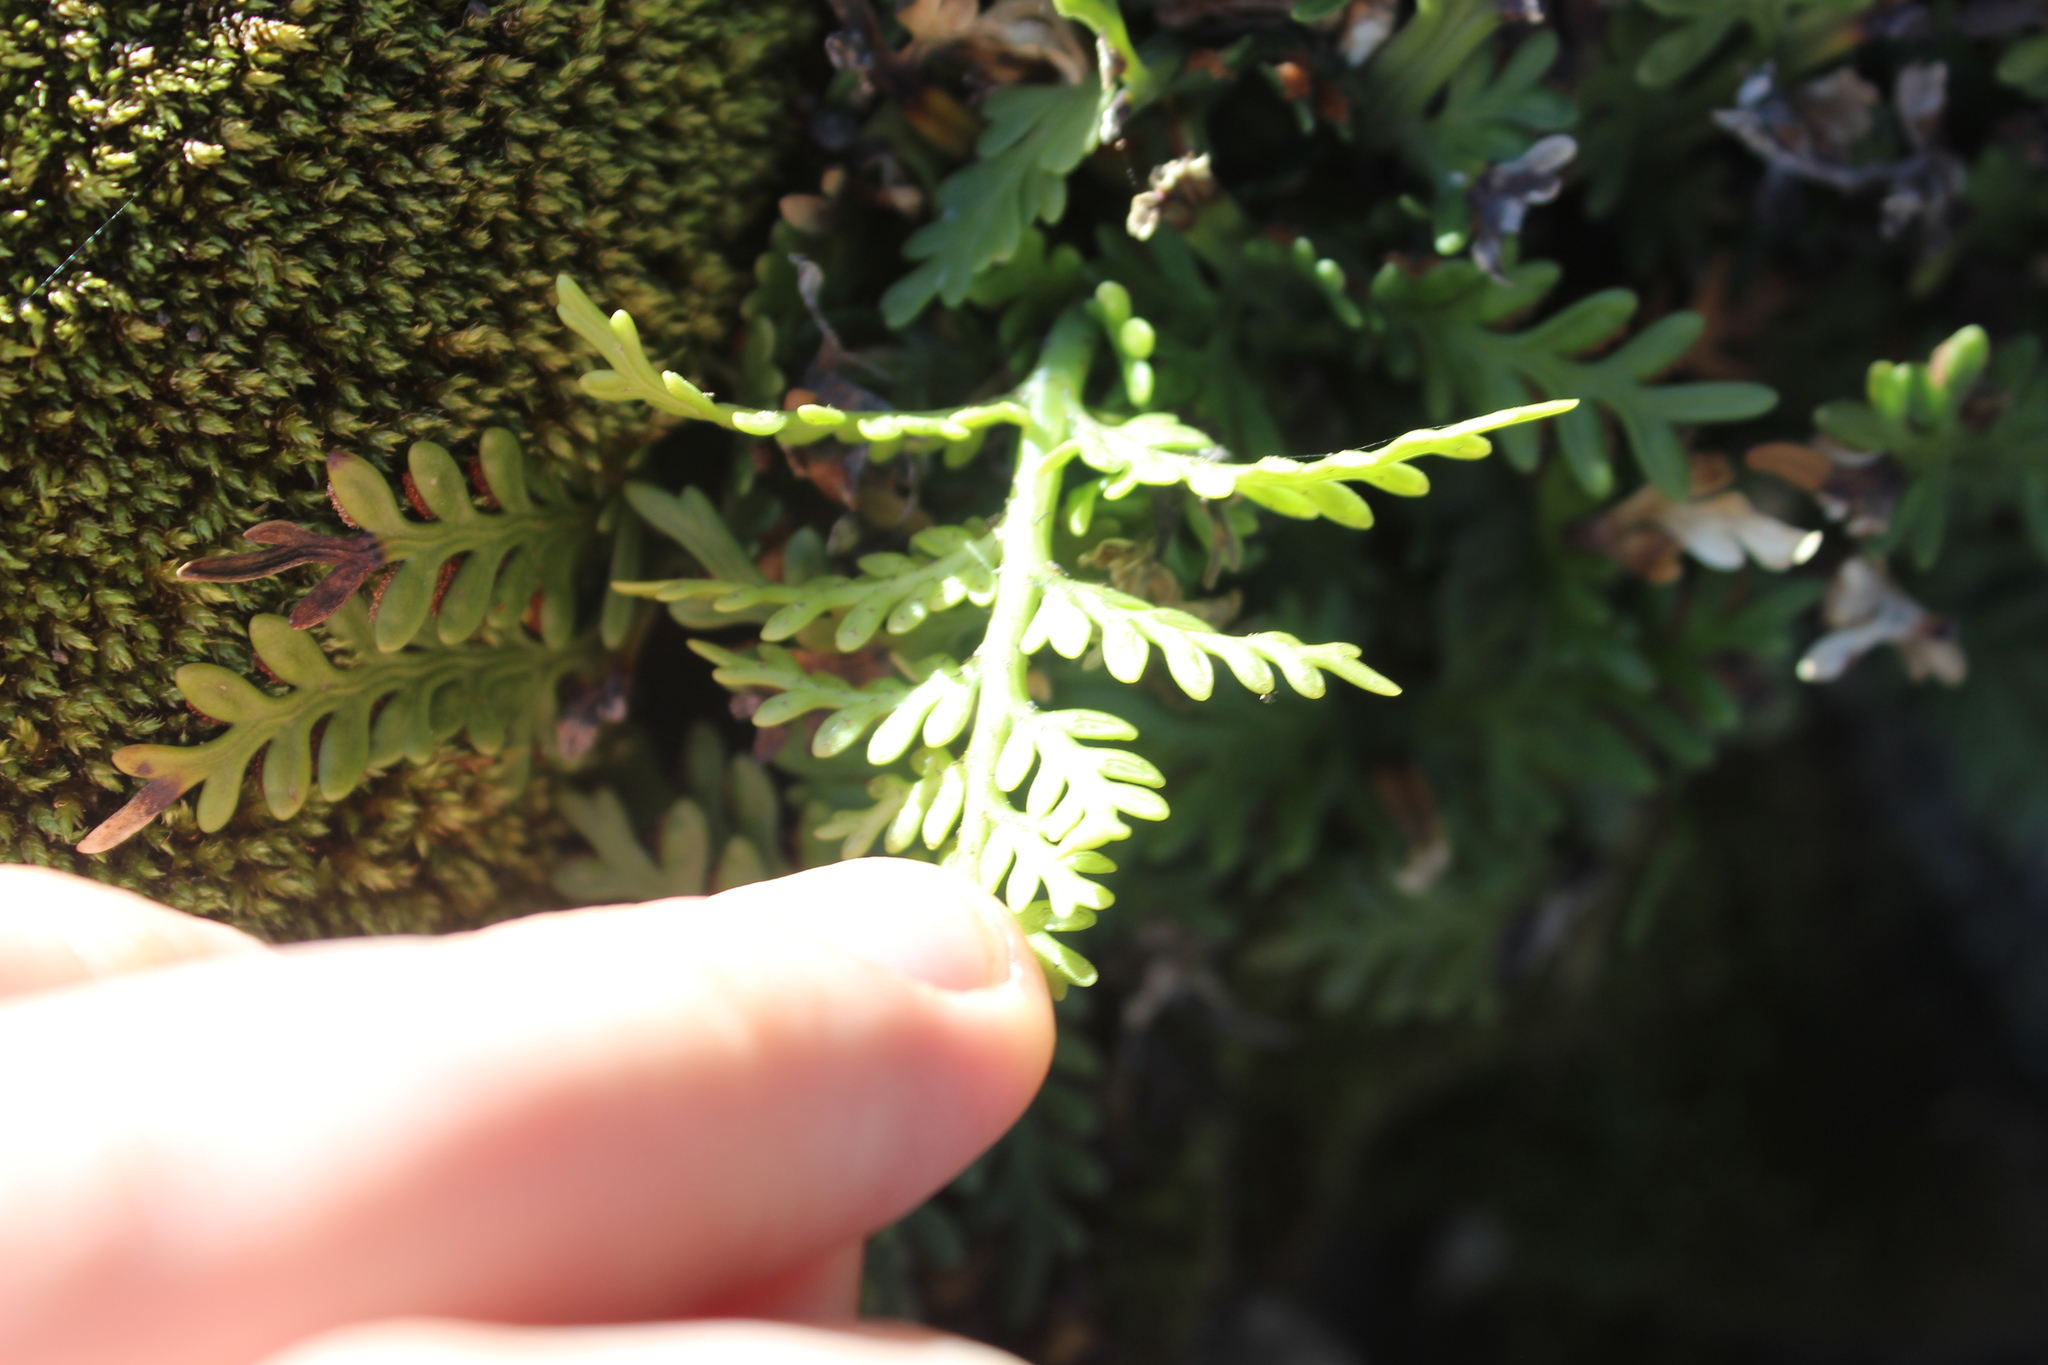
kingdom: Plantae
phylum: Tracheophyta
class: Polypodiopsida
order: Polypodiales
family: Aspleniaceae
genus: Asplenium
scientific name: Asplenium appendiculatum
